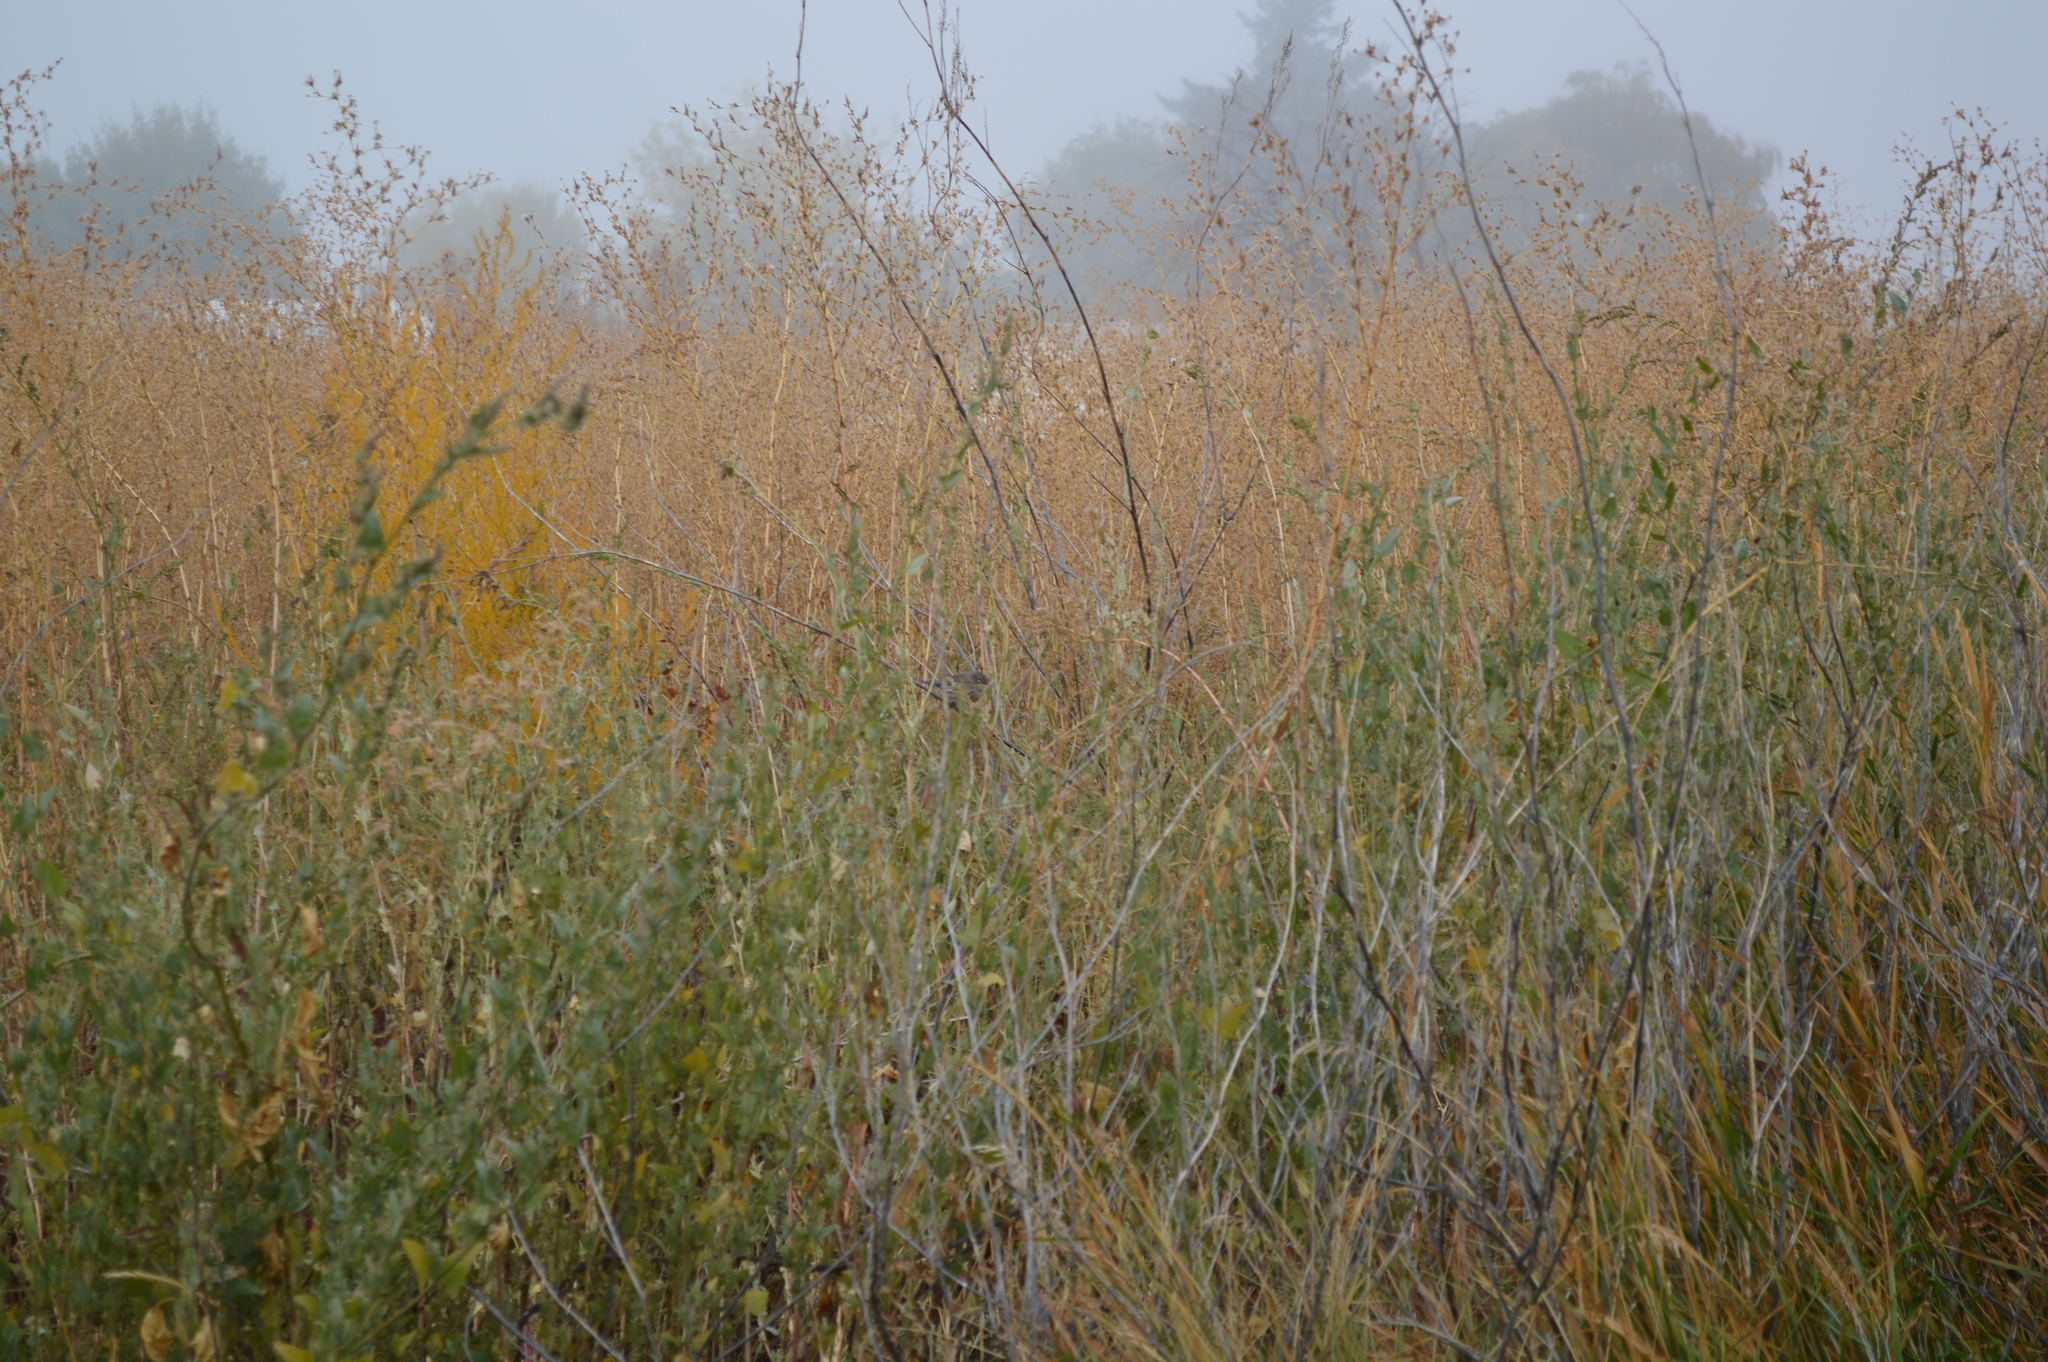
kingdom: Animalia
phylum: Chordata
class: Aves
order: Passeriformes
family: Parulidae
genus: Setophaga
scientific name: Setophaga auduboni
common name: Audubon's warbler
